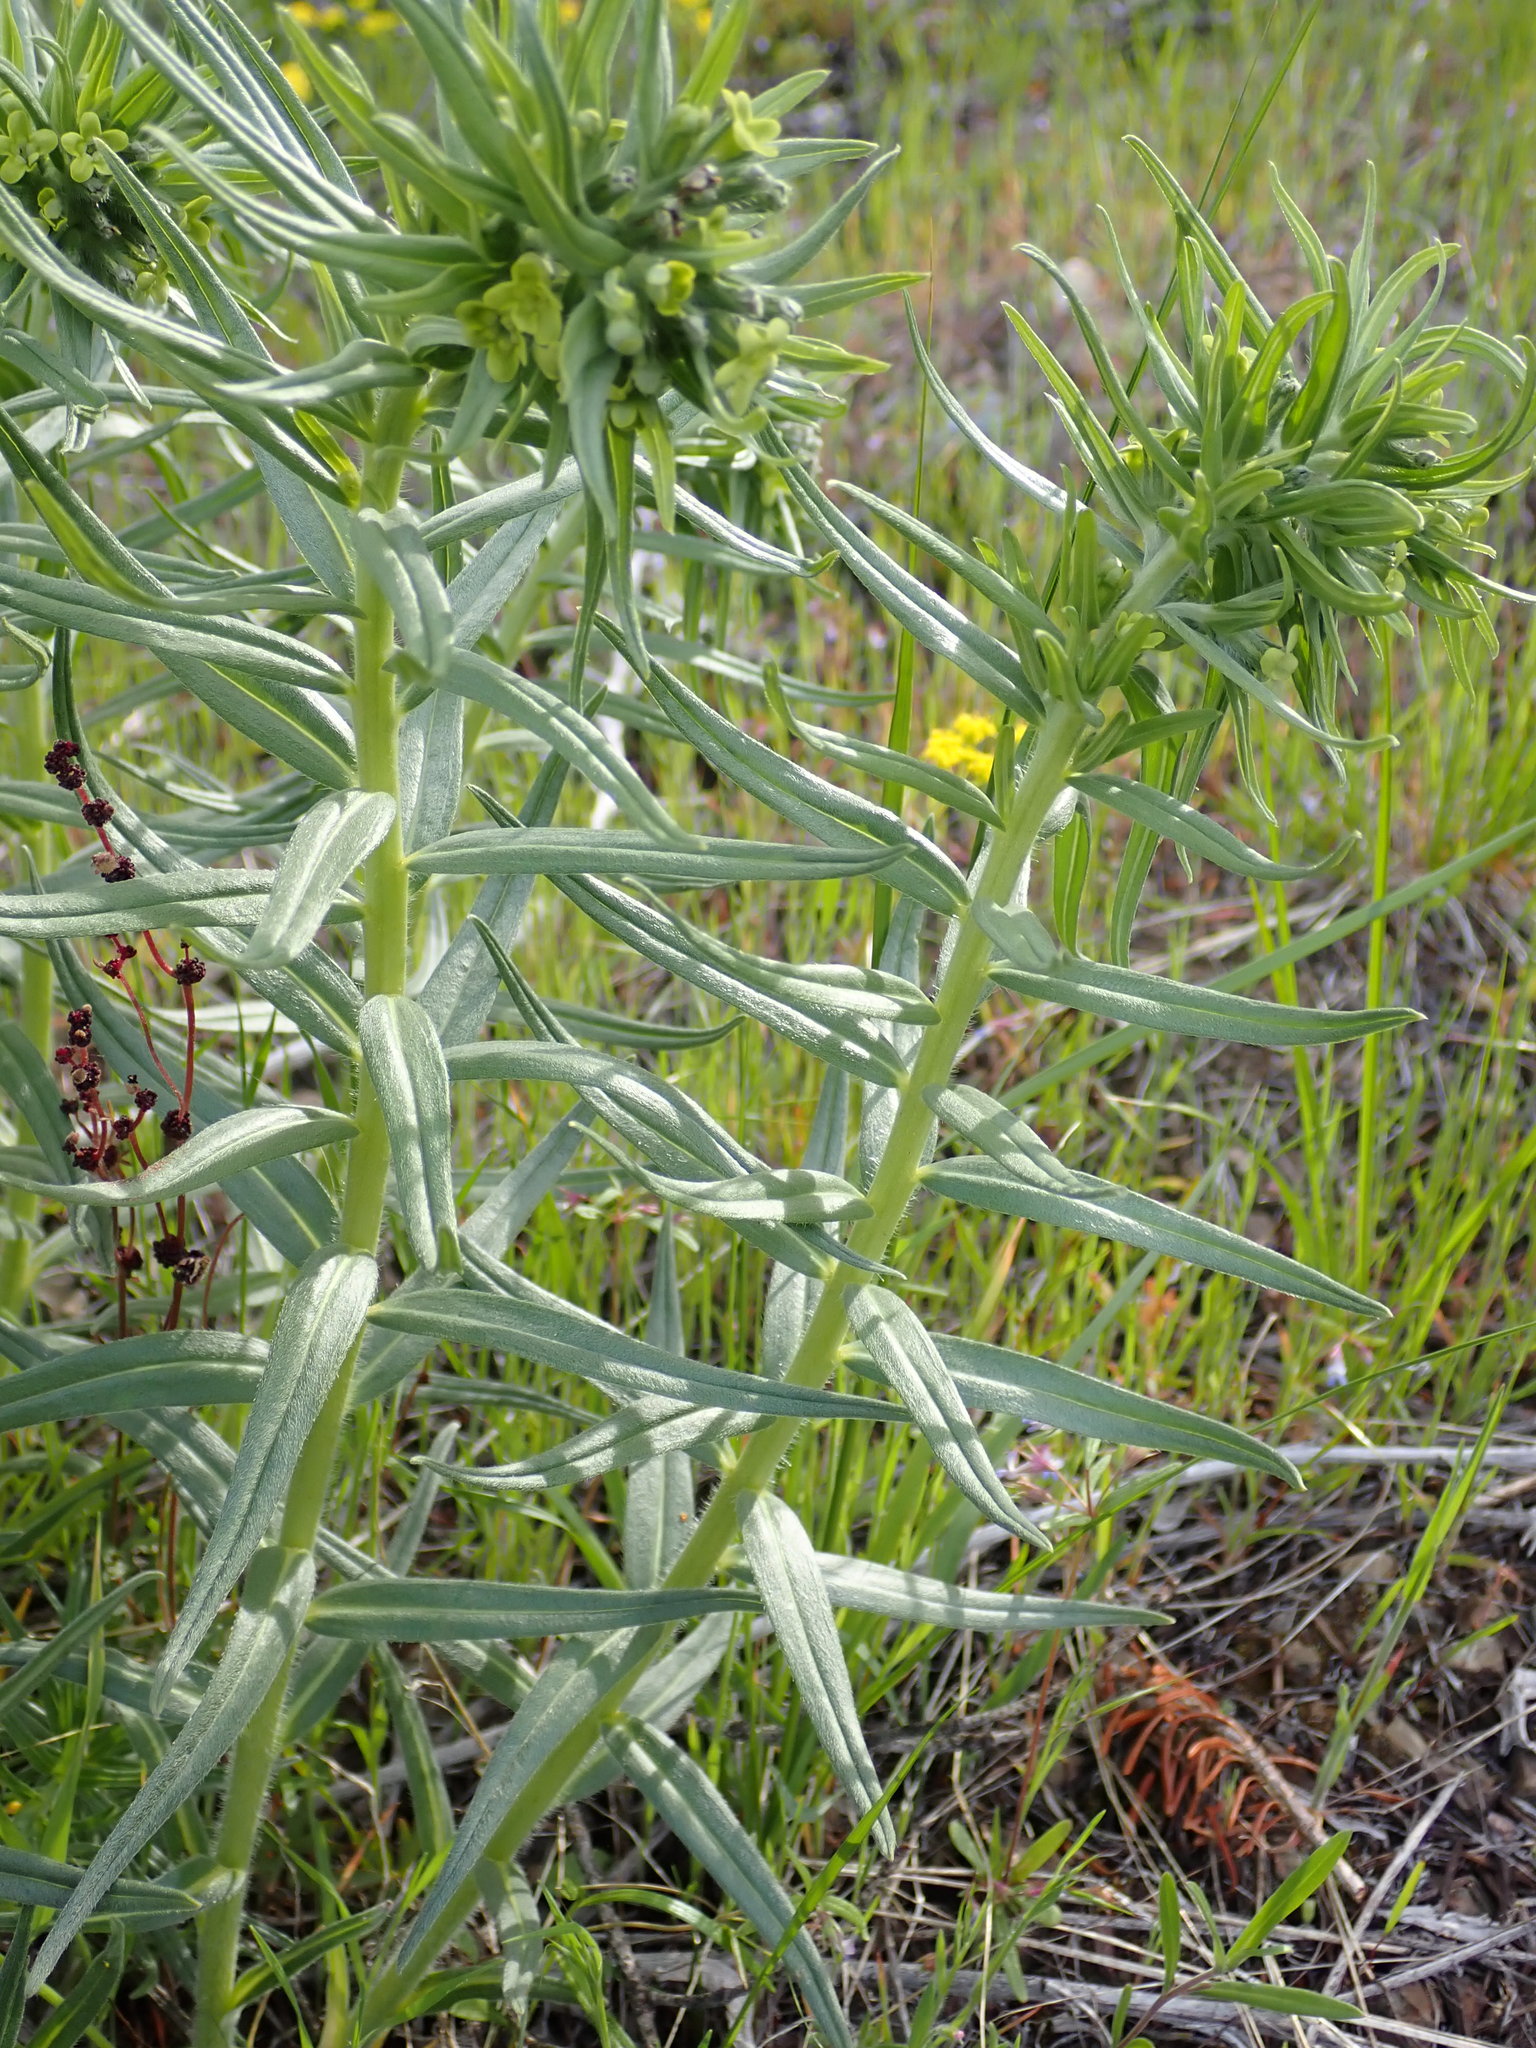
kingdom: Plantae
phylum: Tracheophyta
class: Magnoliopsida
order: Boraginales
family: Boraginaceae
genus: Lithospermum
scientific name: Lithospermum ruderale
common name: Western gromwell
